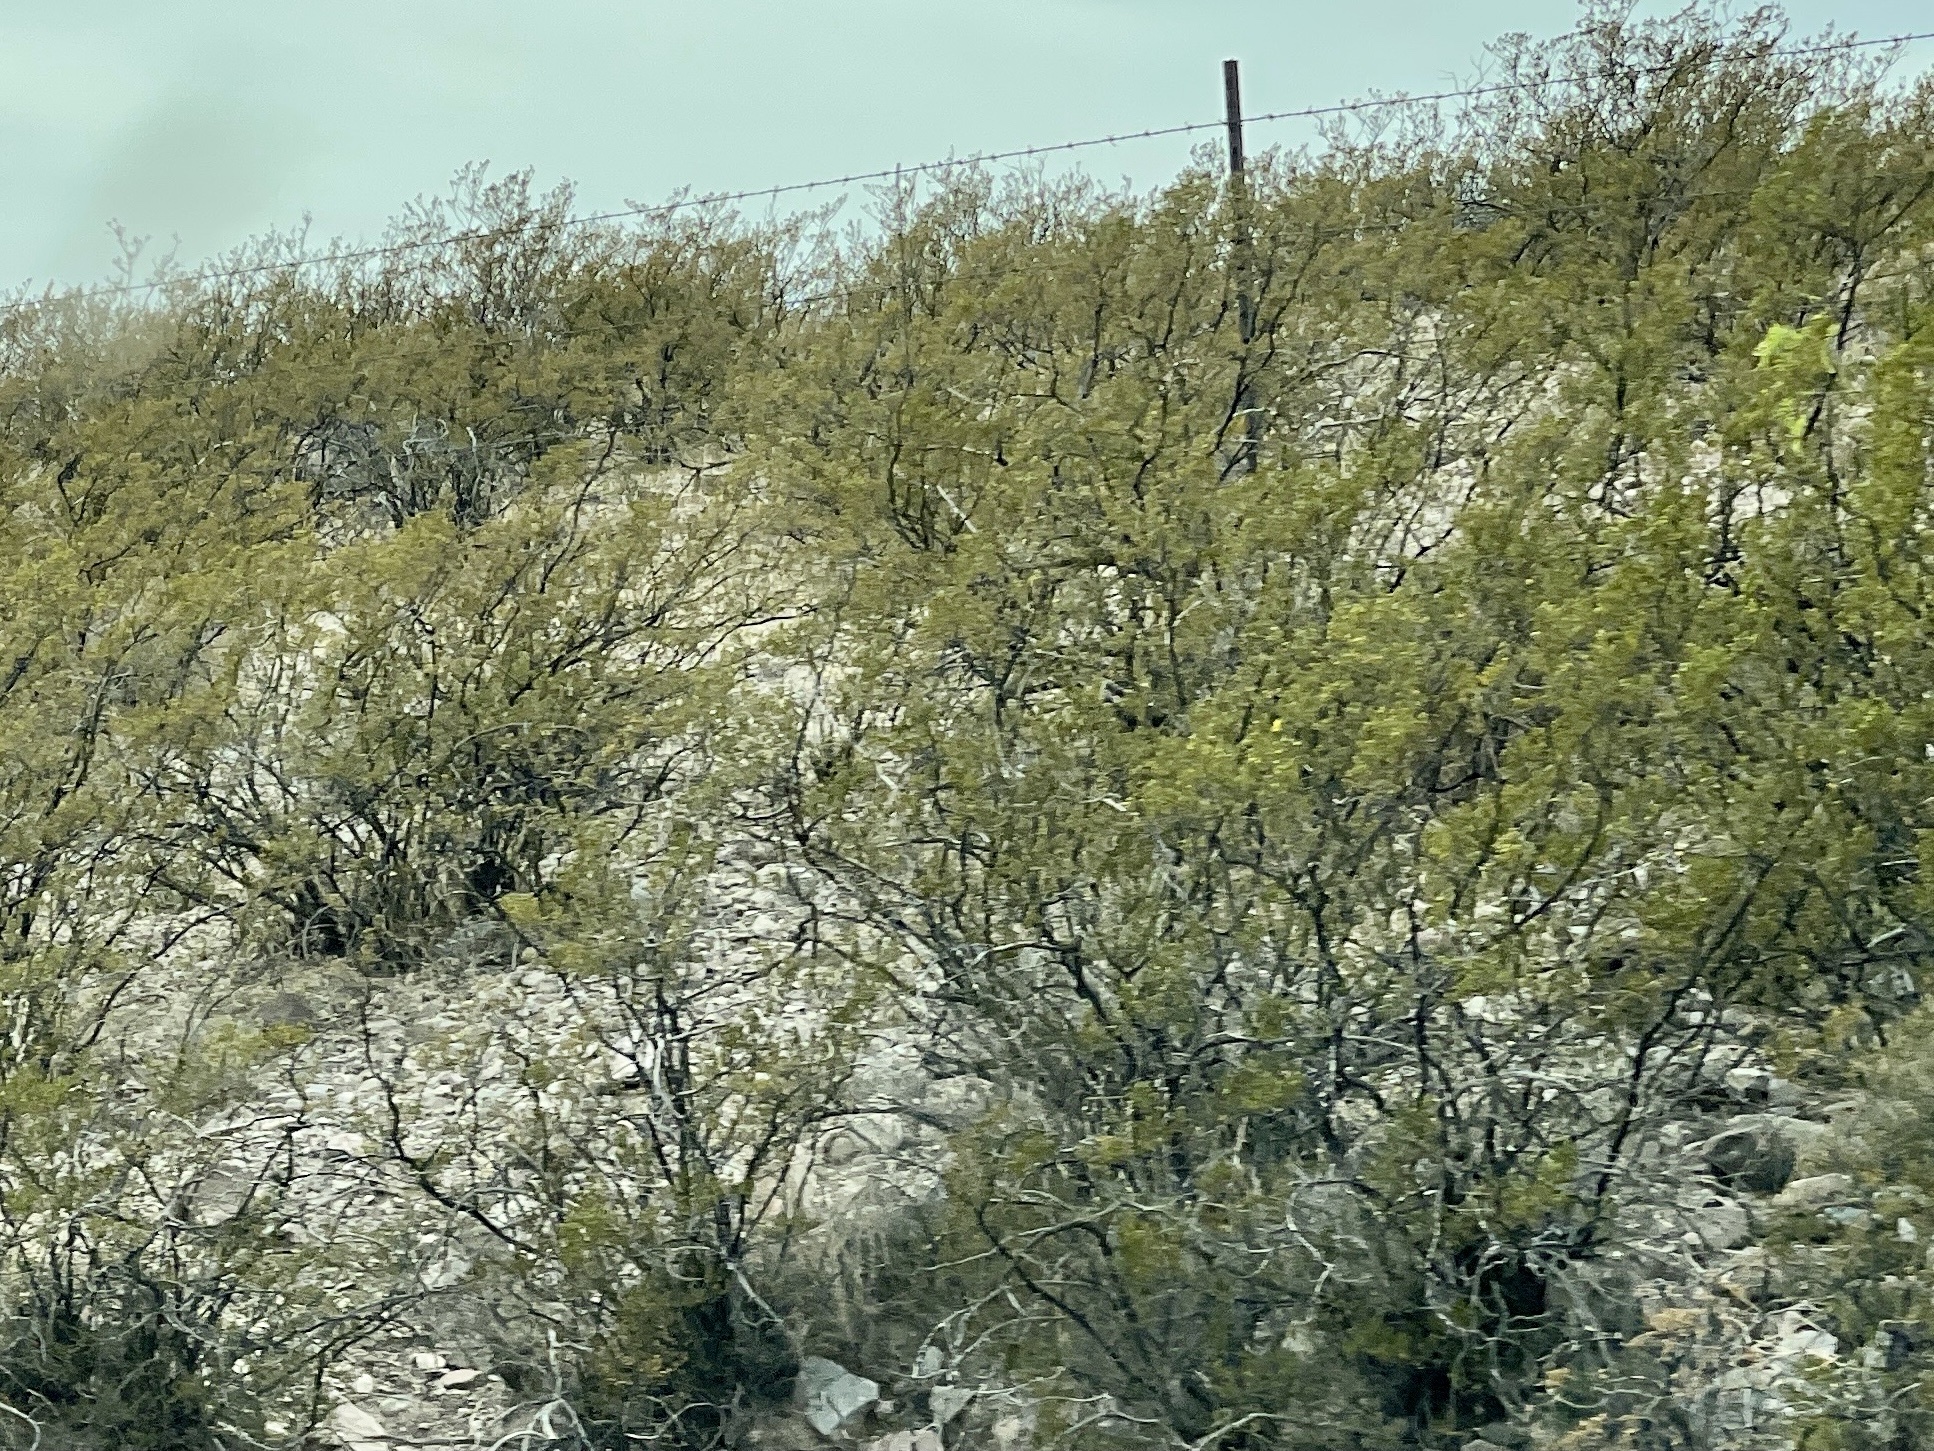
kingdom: Plantae
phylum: Tracheophyta
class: Magnoliopsida
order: Zygophyllales
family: Zygophyllaceae
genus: Larrea
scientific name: Larrea tridentata
